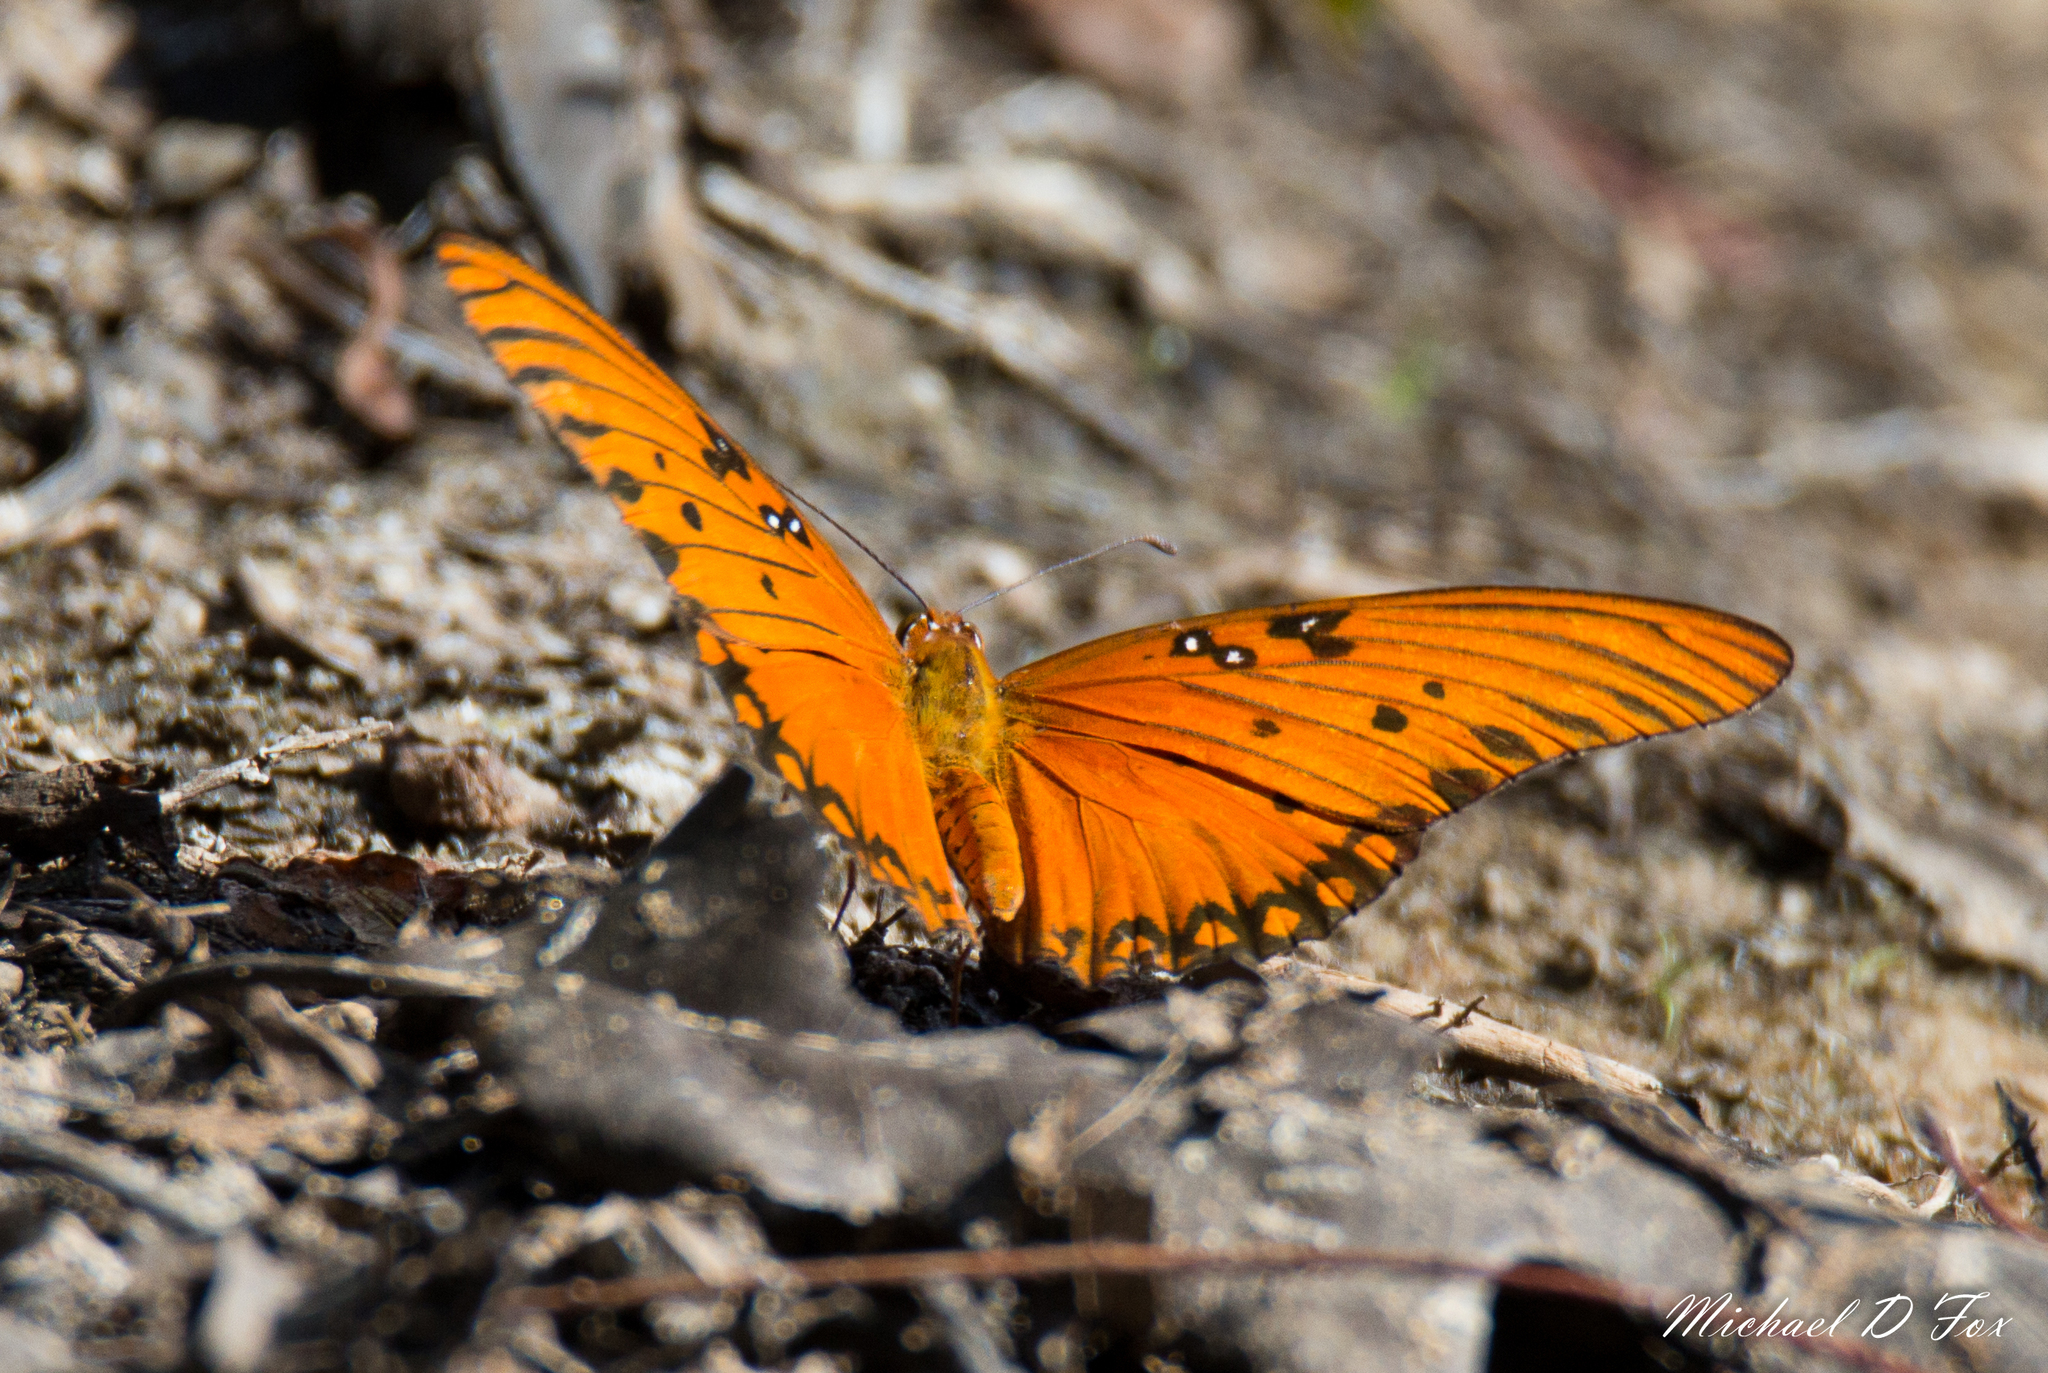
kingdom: Animalia
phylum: Arthropoda
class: Insecta
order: Lepidoptera
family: Nymphalidae
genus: Dione
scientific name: Dione vanillae
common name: Gulf fritillary
